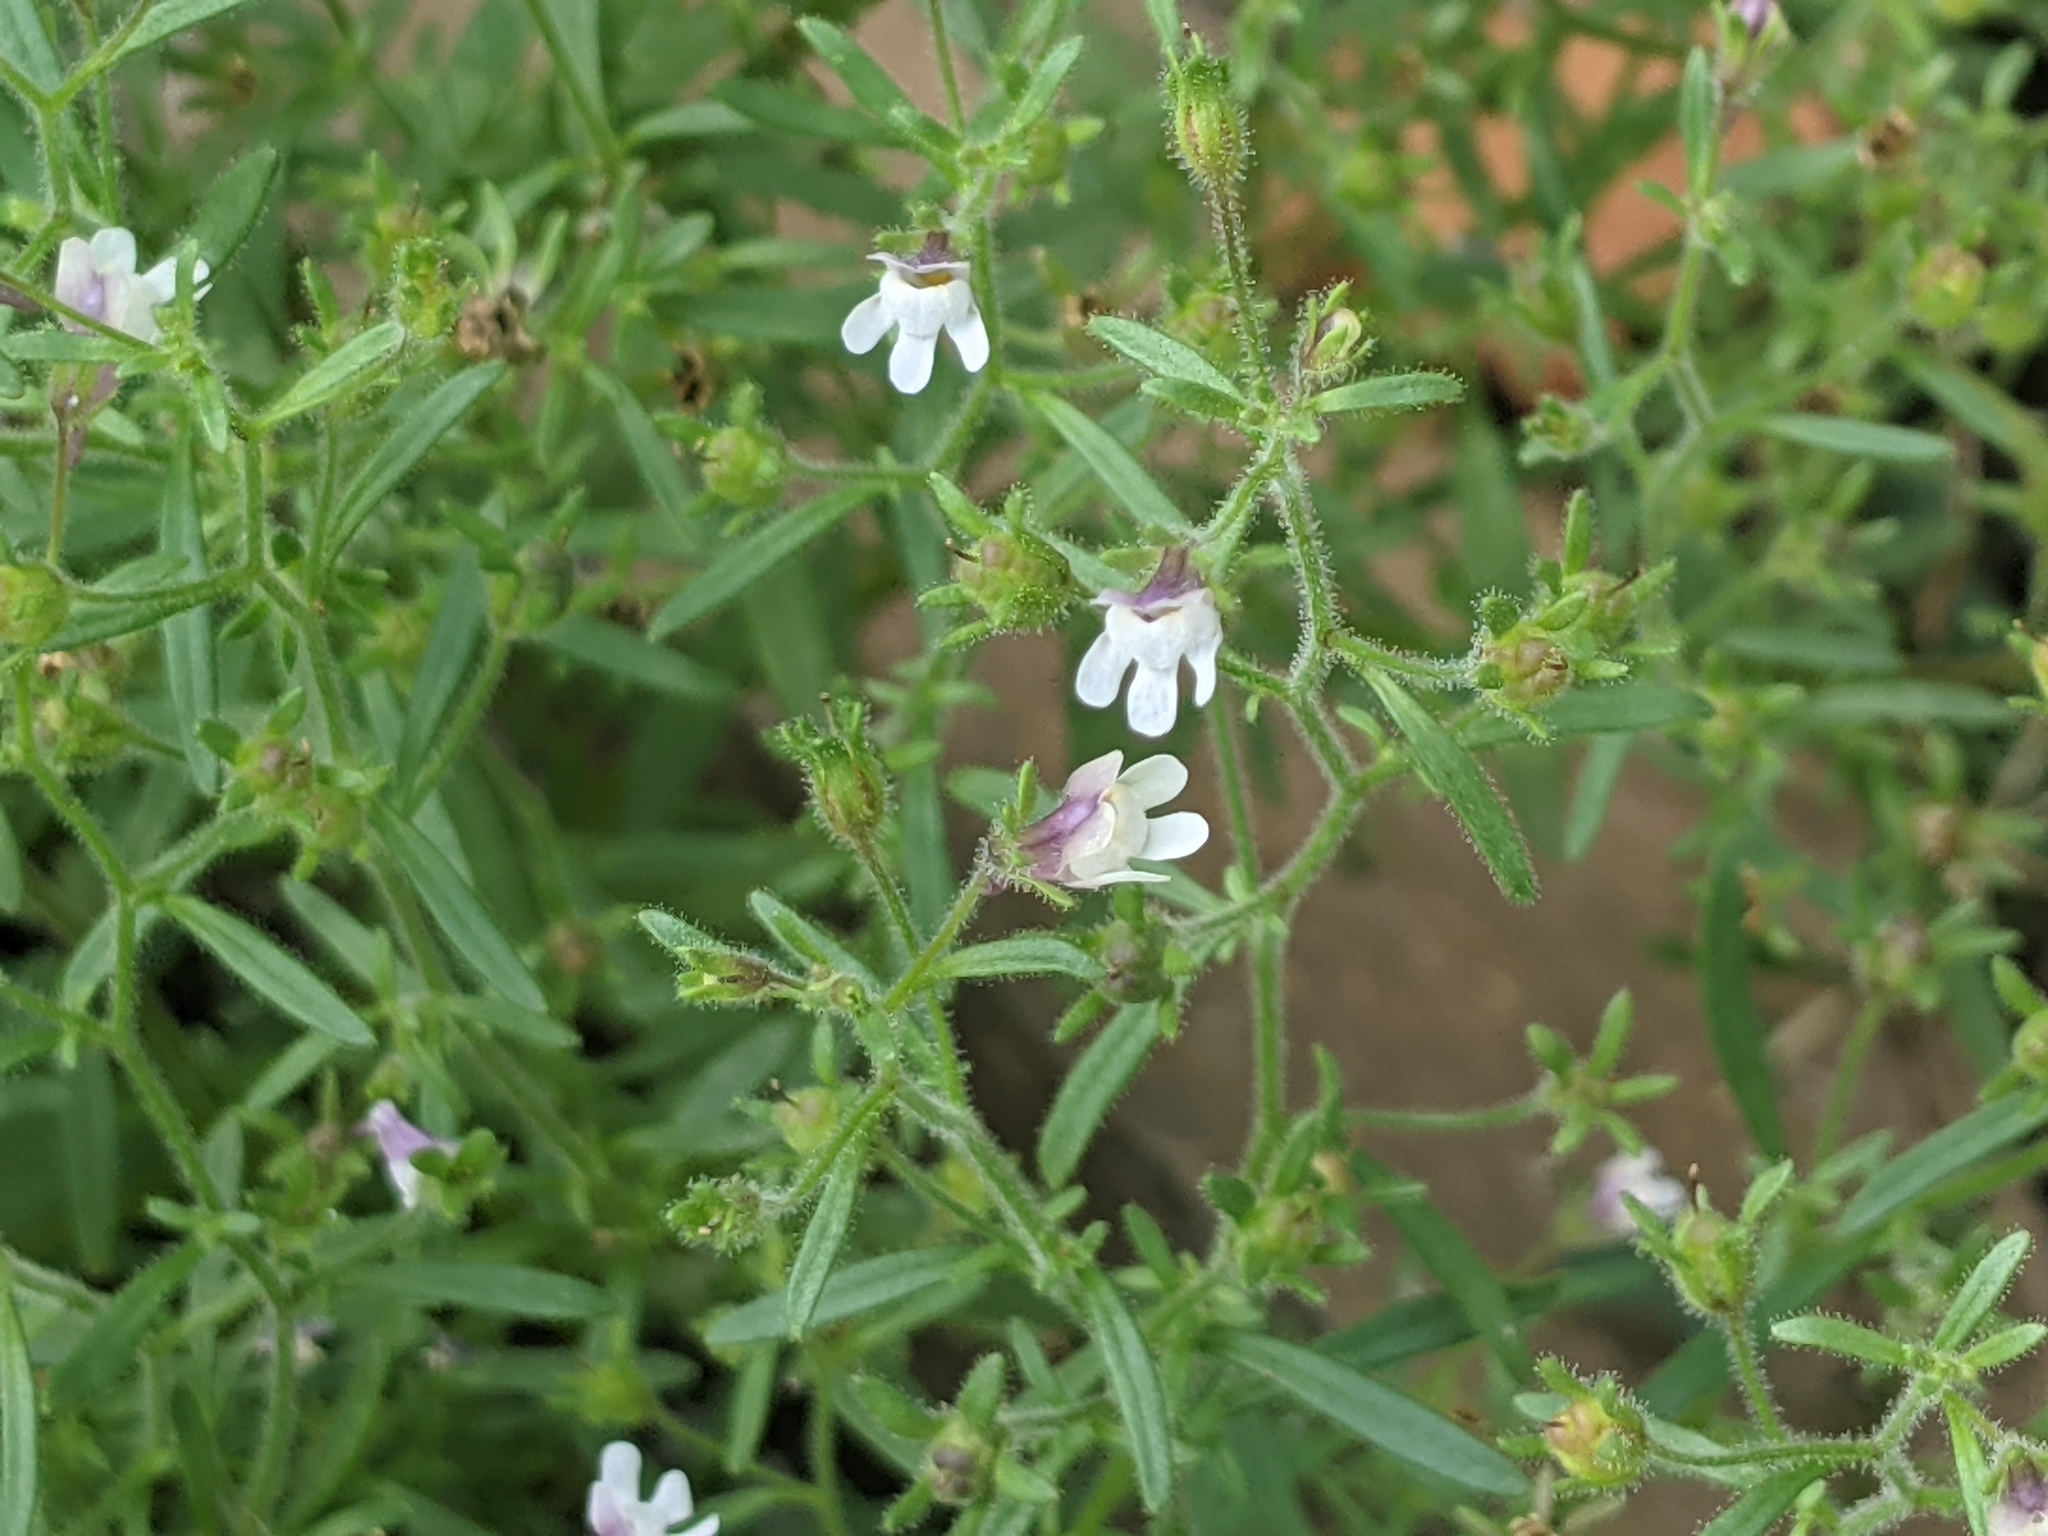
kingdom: Plantae
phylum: Tracheophyta
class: Magnoliopsida
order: Lamiales
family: Plantaginaceae
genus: Chaenorhinum
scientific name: Chaenorhinum minus
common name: Dwarf snapdragon
